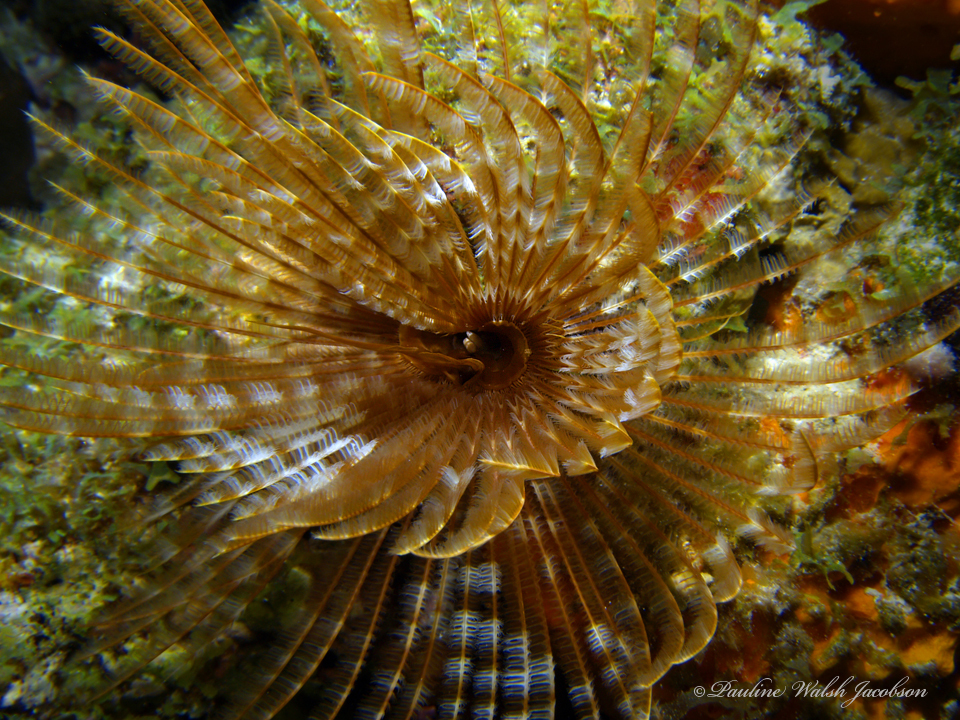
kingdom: Animalia
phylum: Annelida
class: Polychaeta
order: Sabellida
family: Sabellidae
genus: Sabellastarte
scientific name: Sabellastarte magnifica
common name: Giant feather-duster worm
